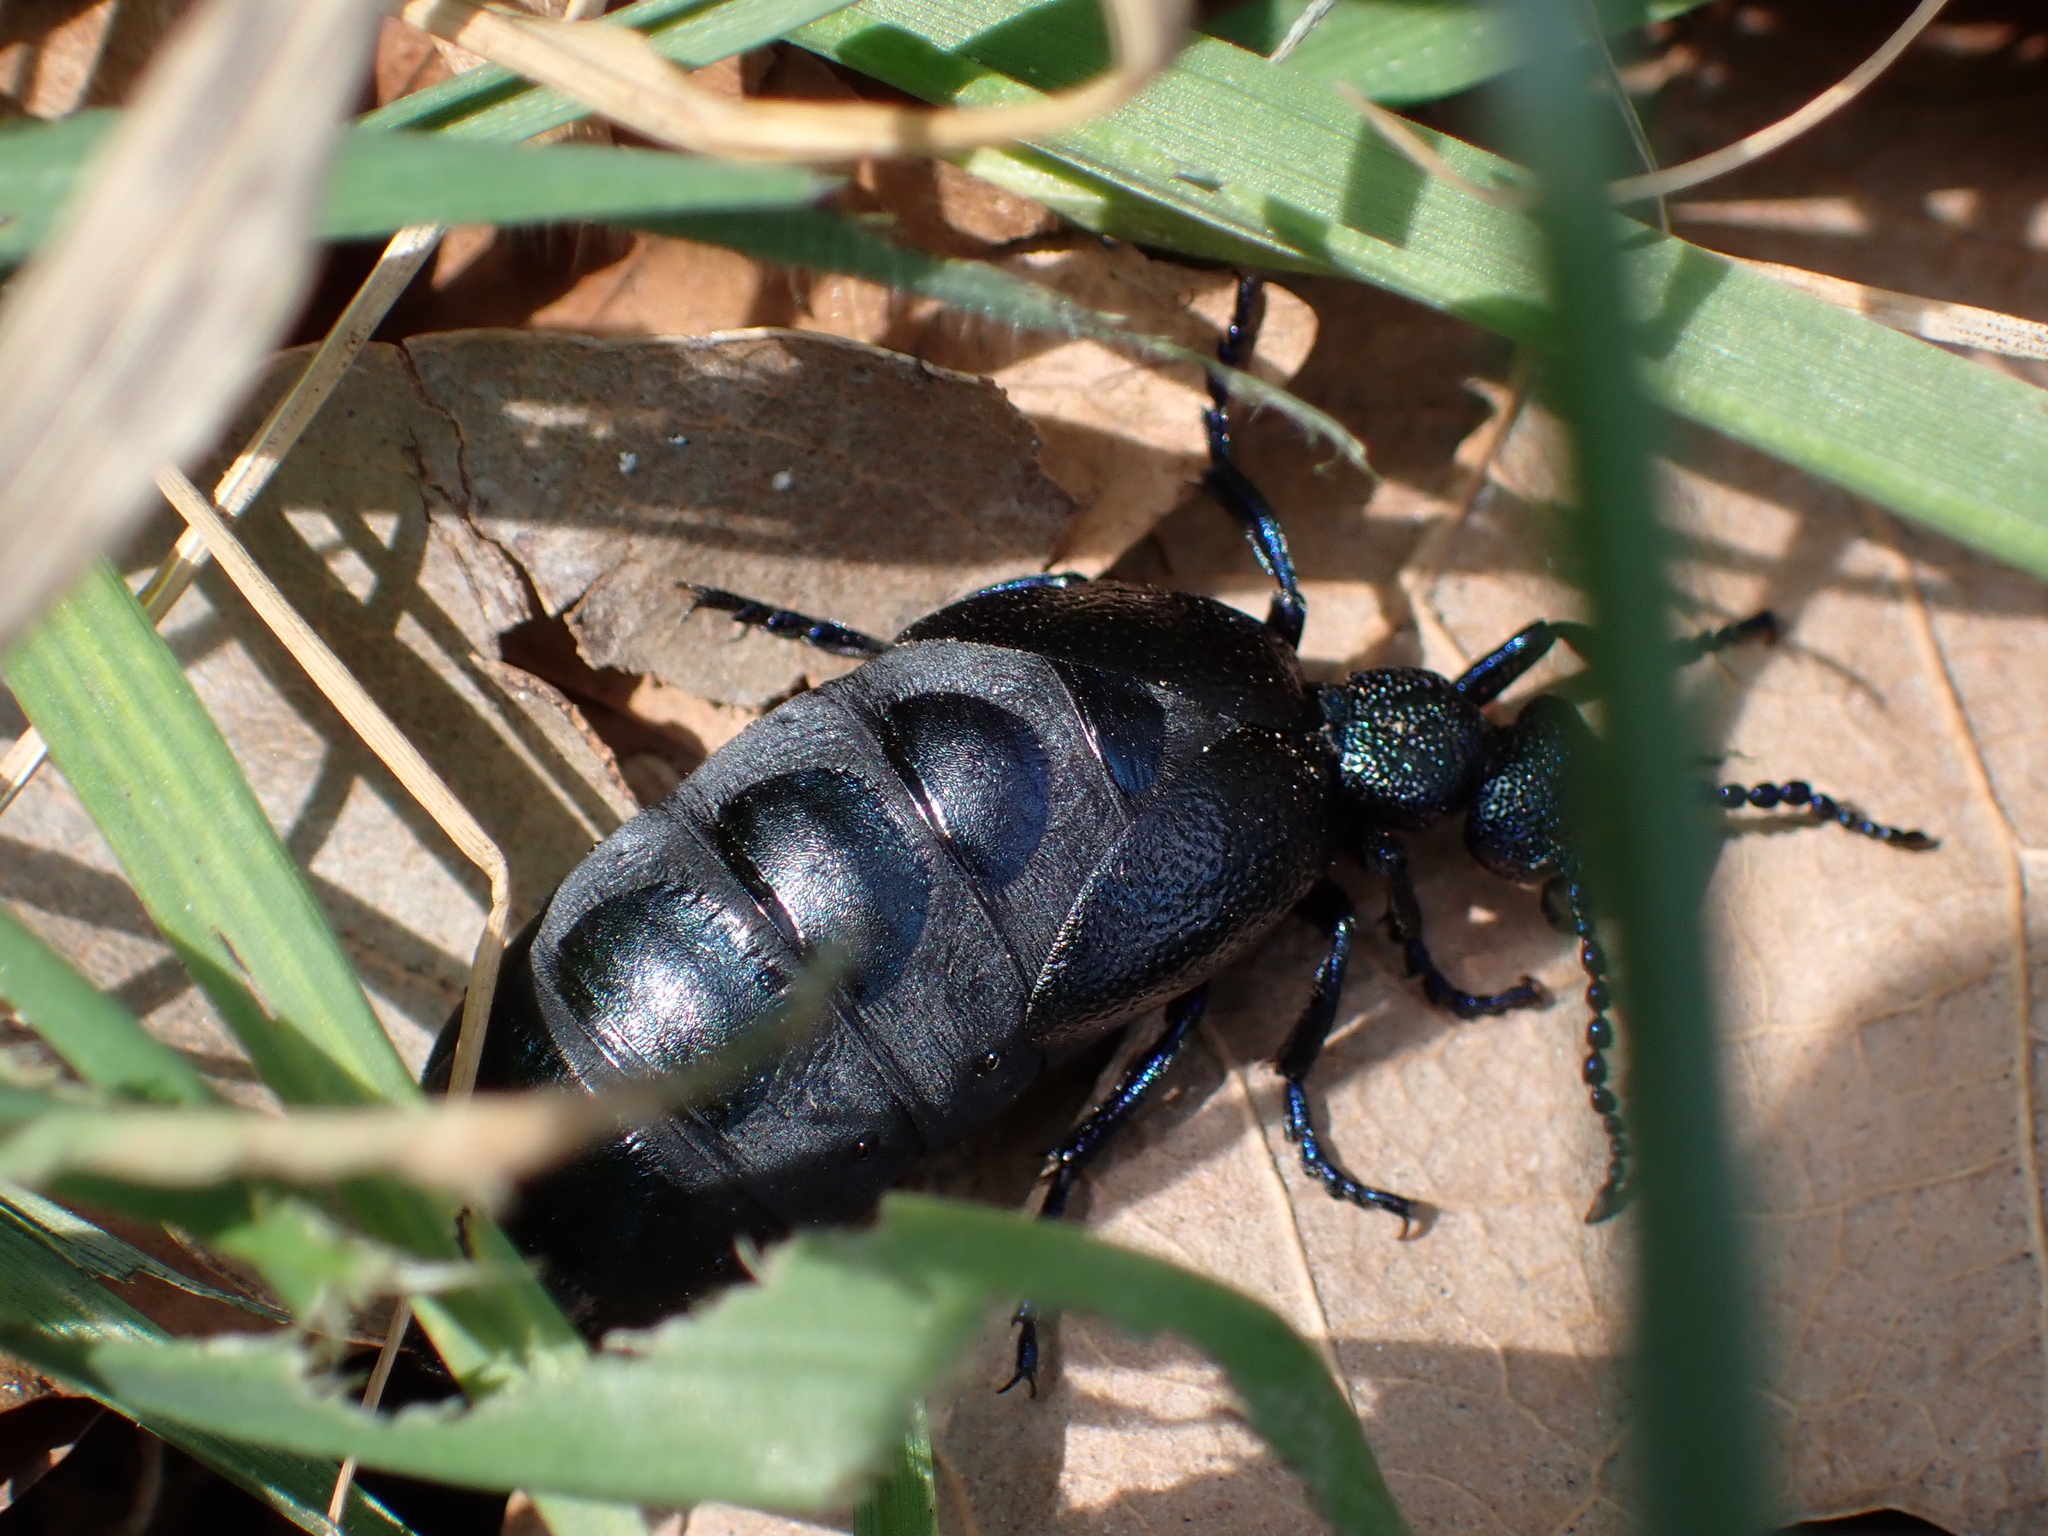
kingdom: Animalia
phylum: Arthropoda
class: Insecta
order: Coleoptera
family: Meloidae
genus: Meloe
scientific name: Meloe proscarabaeus
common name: Black oil-beetle
